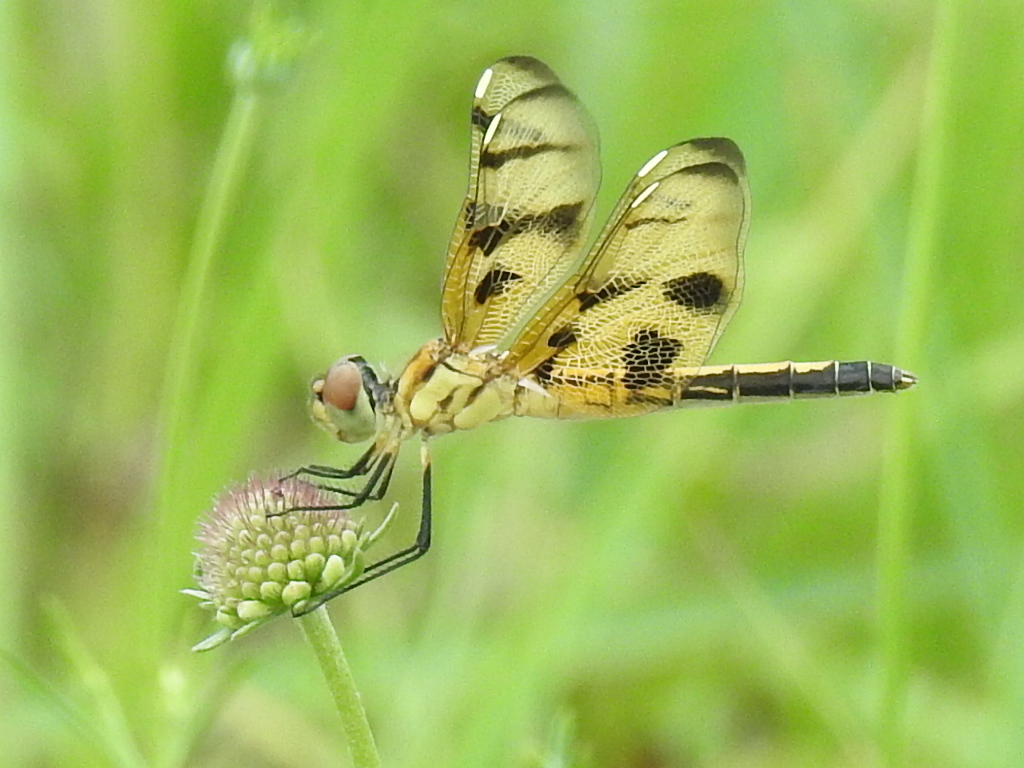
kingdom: Animalia
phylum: Arthropoda
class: Insecta
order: Odonata
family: Libellulidae
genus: Celithemis
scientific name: Celithemis eponina
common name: Halloween pennant
